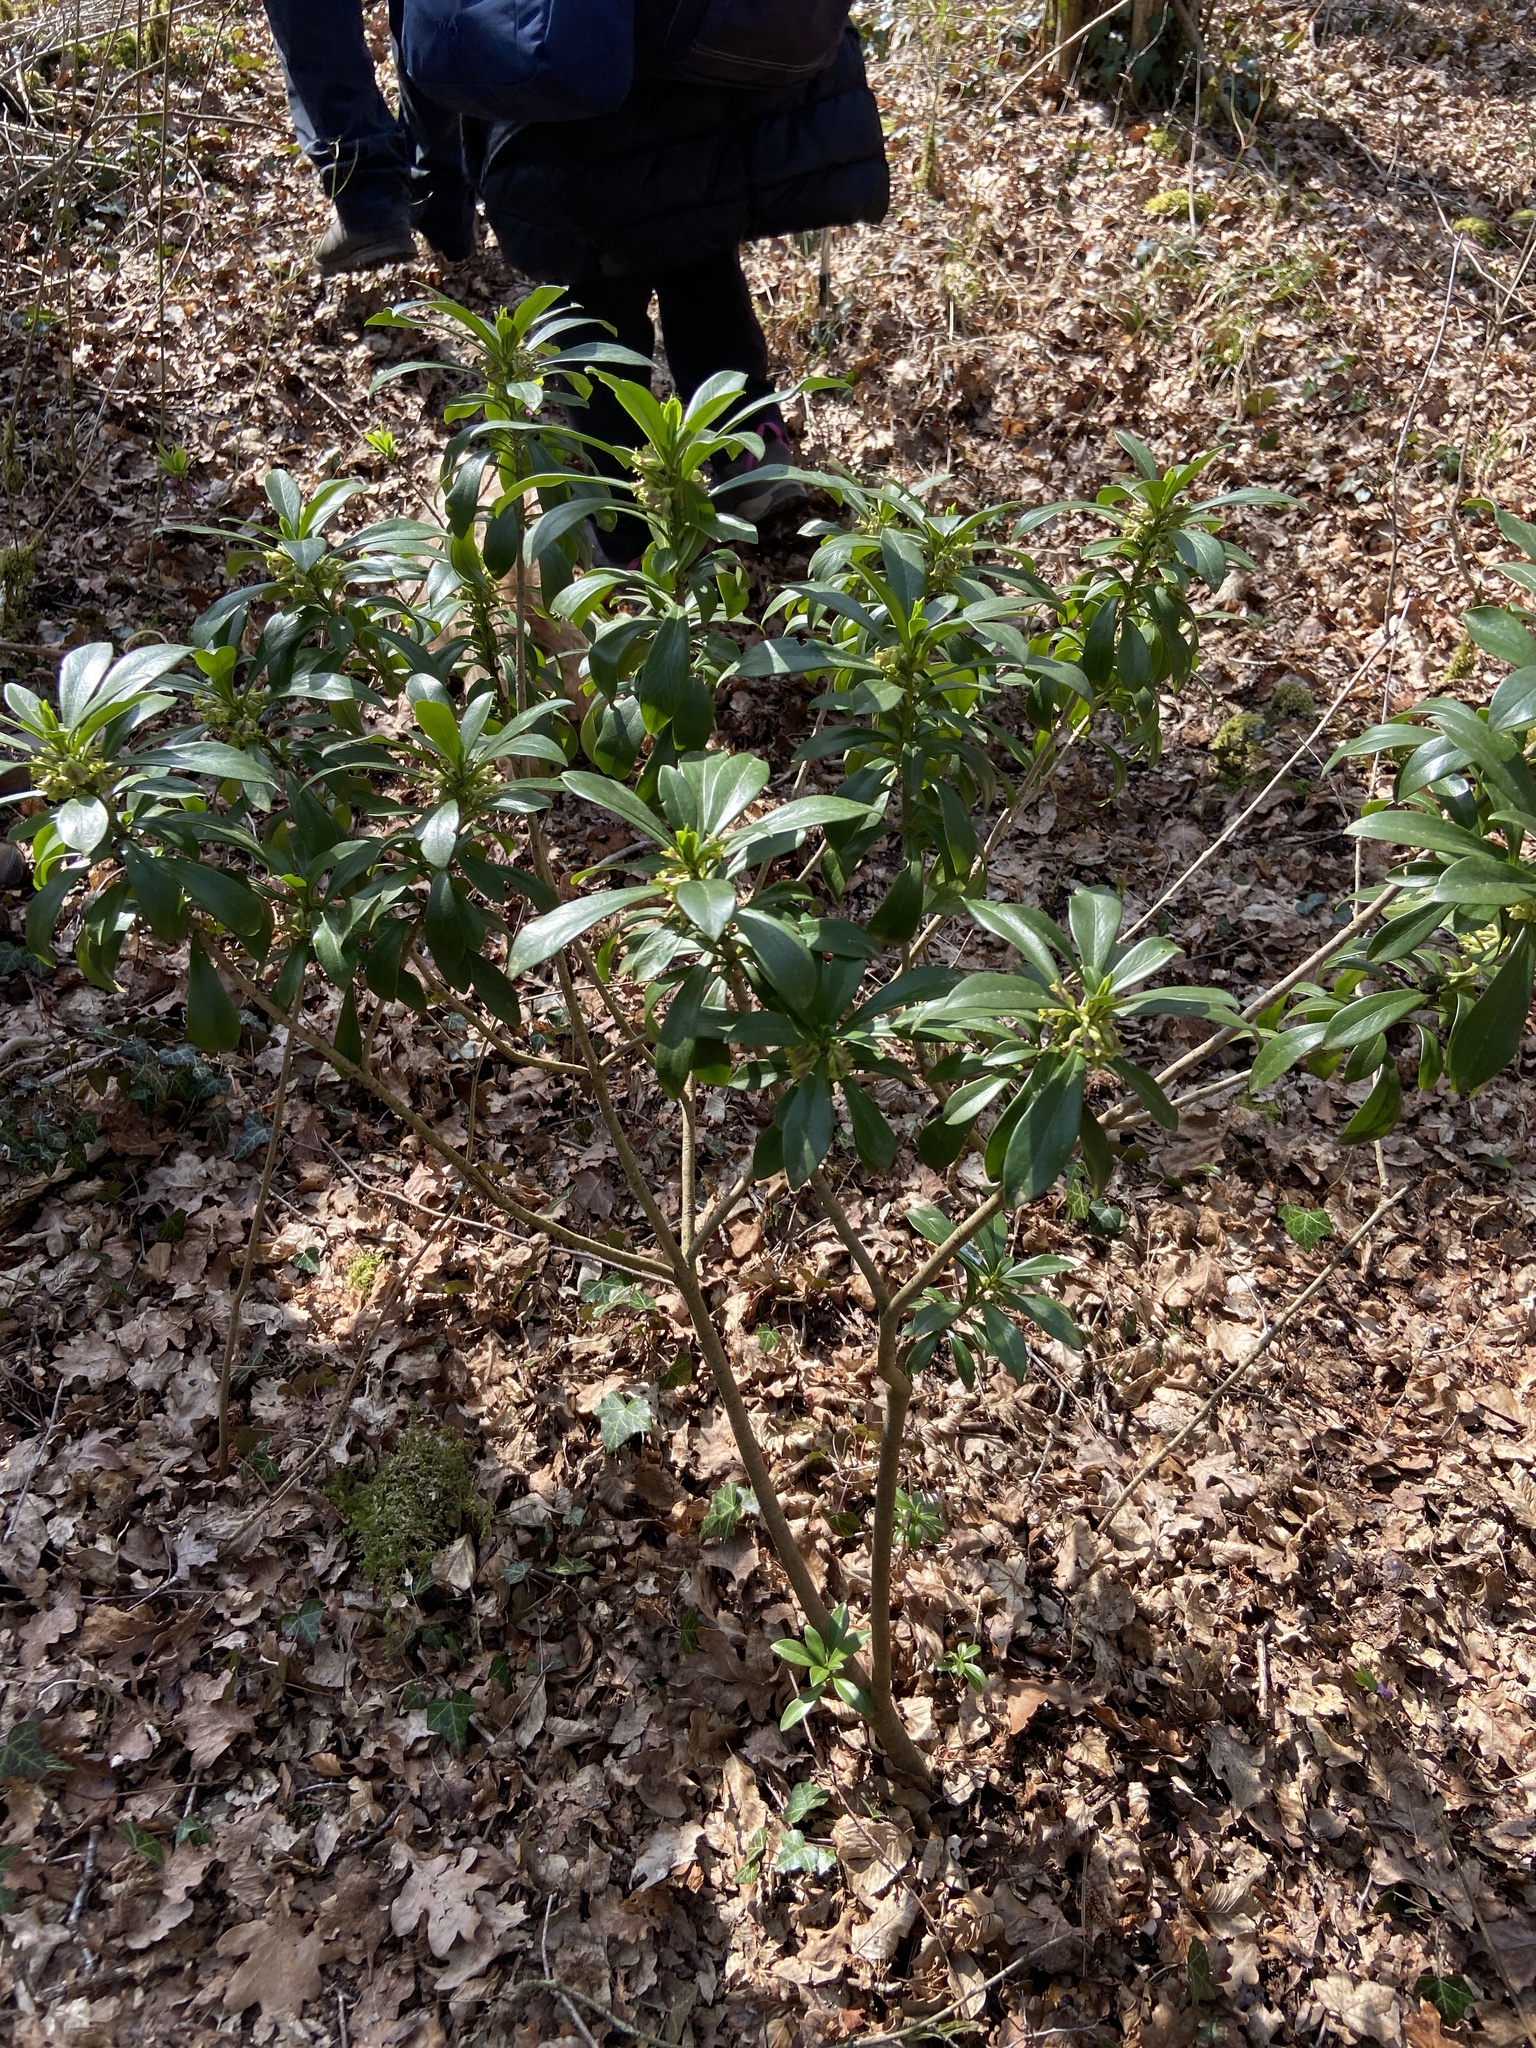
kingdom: Plantae
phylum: Tracheophyta
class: Magnoliopsida
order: Malvales
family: Thymelaeaceae
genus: Daphne
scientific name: Daphne laureola
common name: Spurge-laurel
